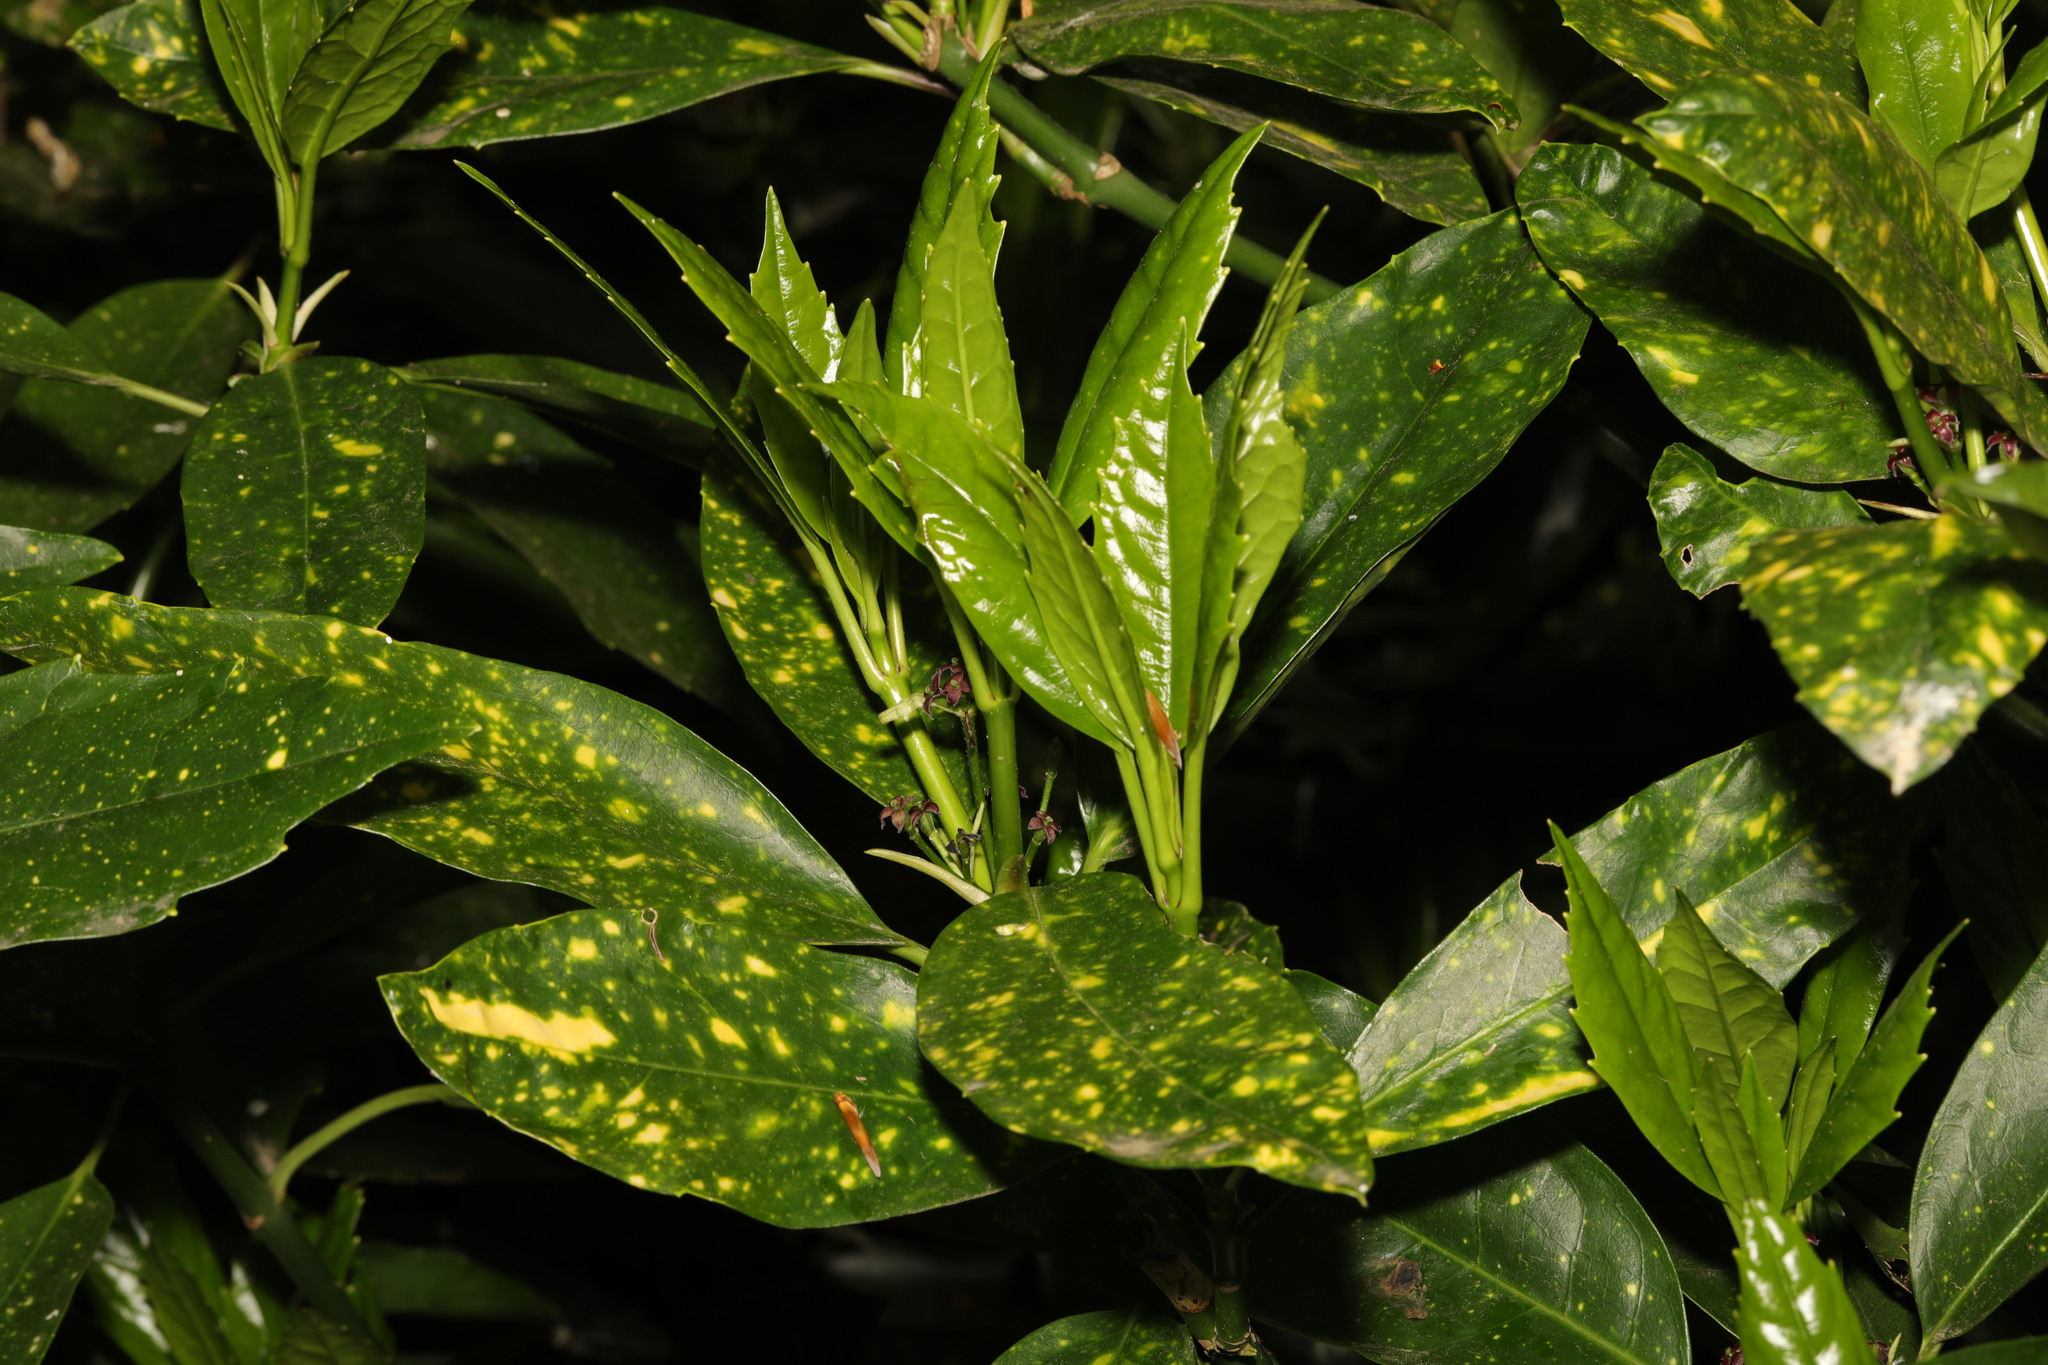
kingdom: Plantae
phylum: Tracheophyta
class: Magnoliopsida
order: Garryales
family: Garryaceae
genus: Aucuba
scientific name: Aucuba japonica
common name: Spotted-laurel
